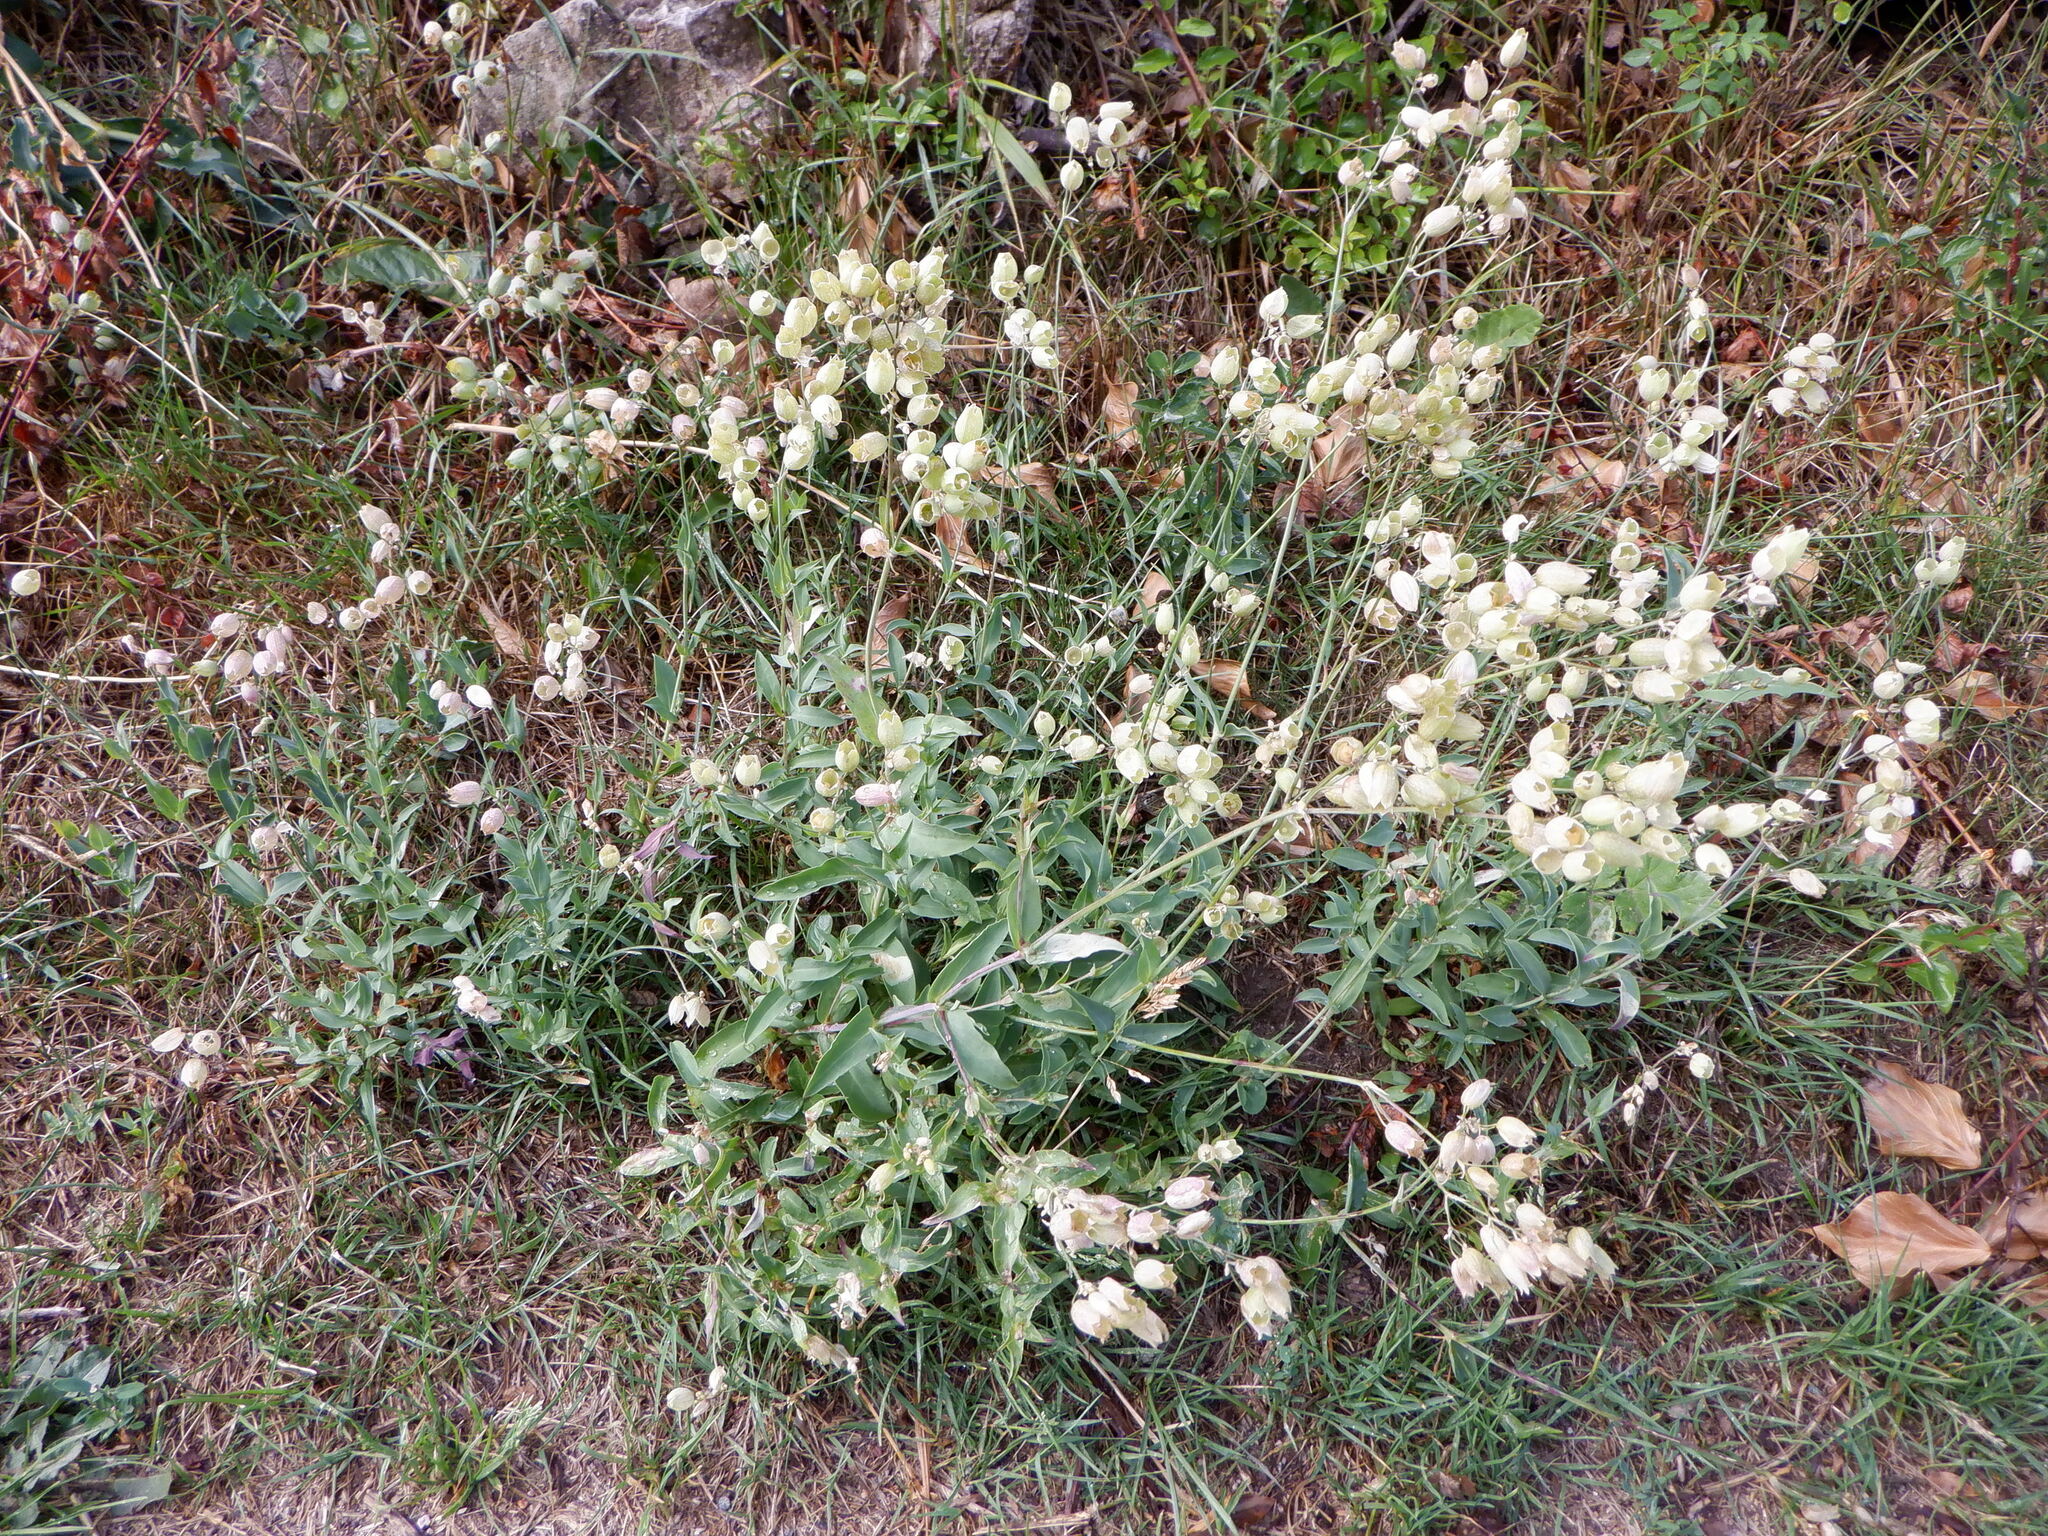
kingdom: Plantae
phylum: Tracheophyta
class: Magnoliopsida
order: Caryophyllales
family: Caryophyllaceae
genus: Silene
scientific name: Silene vulgaris
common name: Bladder campion
